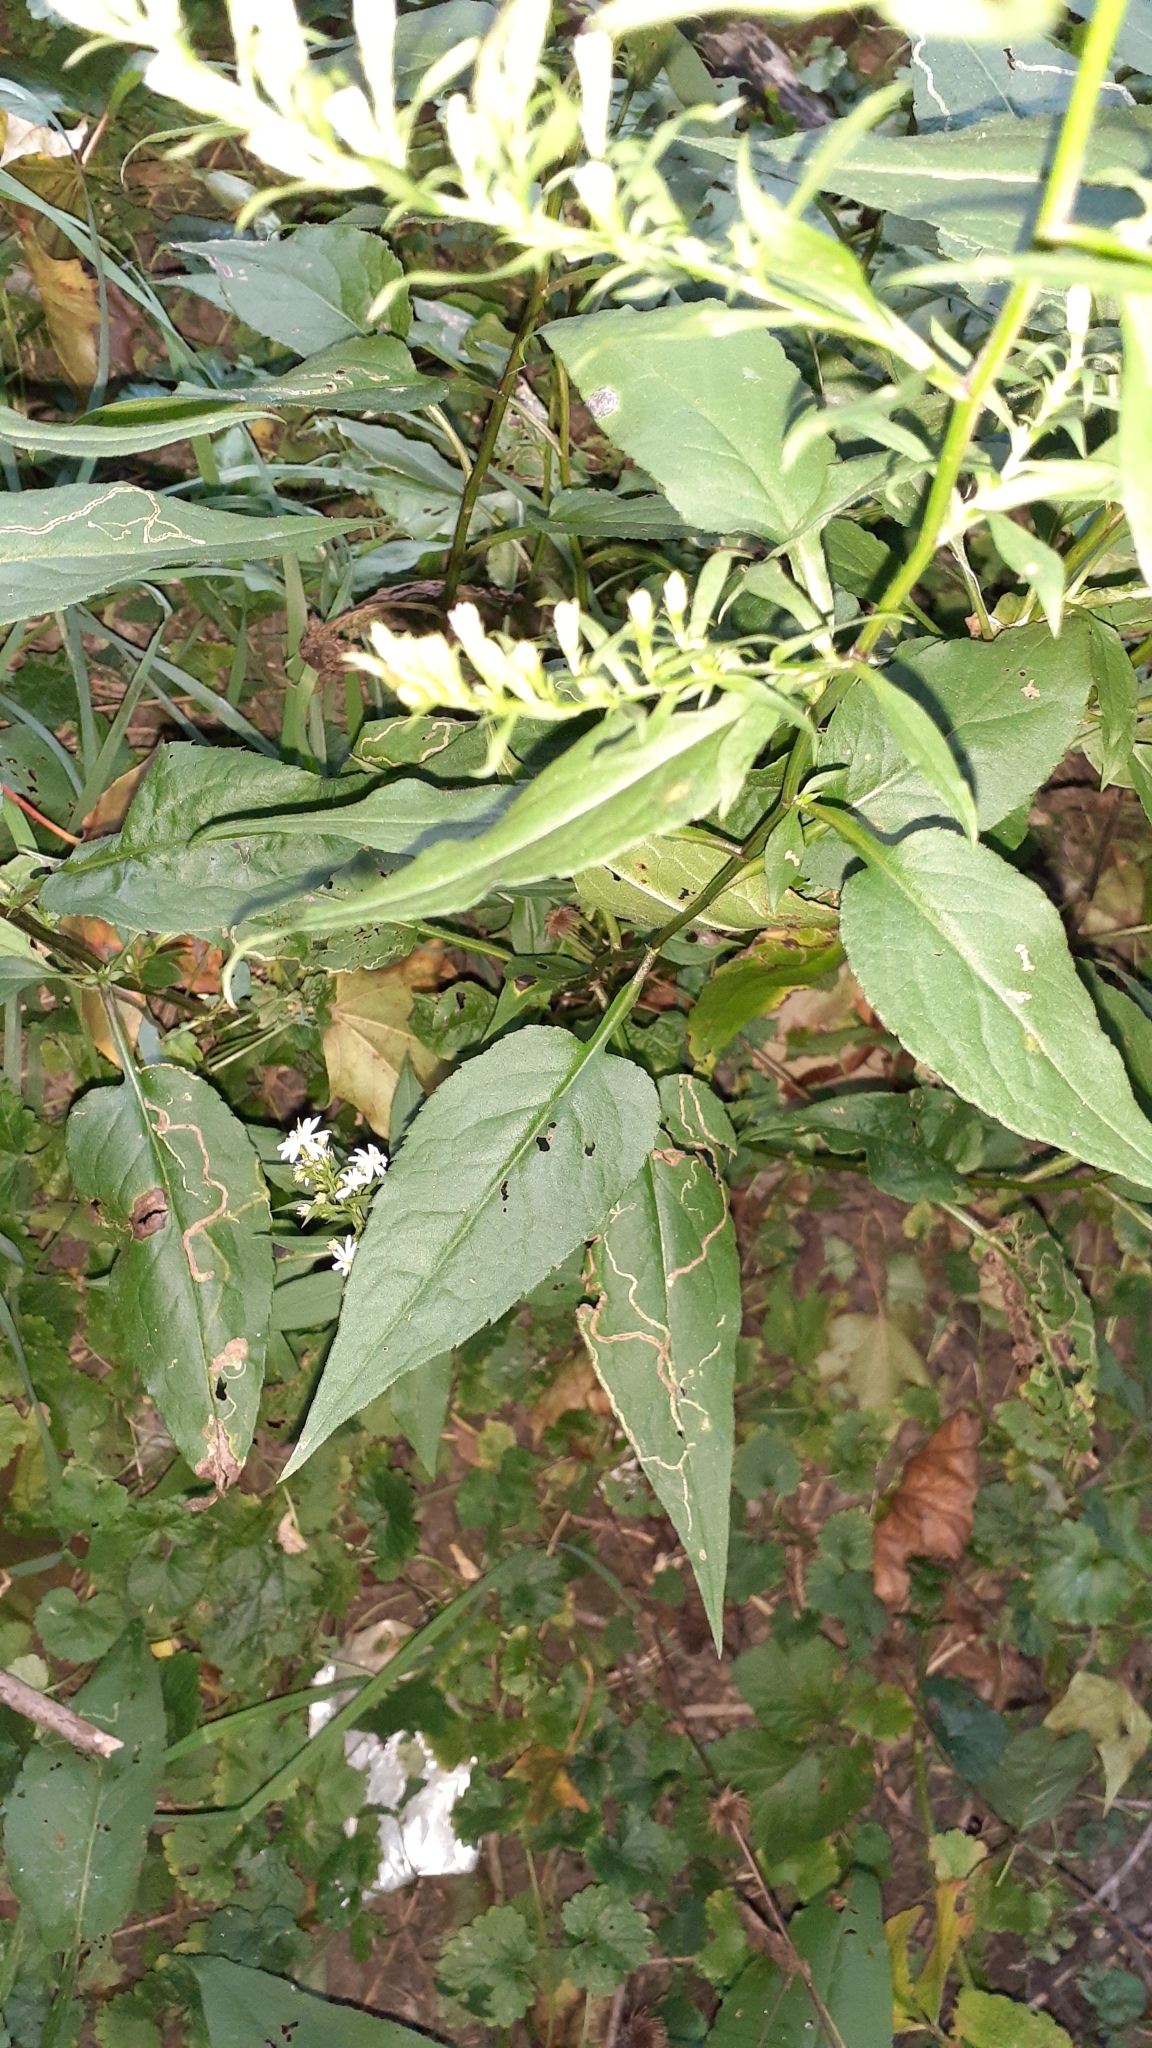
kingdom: Plantae
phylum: Tracheophyta
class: Magnoliopsida
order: Asterales
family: Asteraceae
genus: Symphyotrichum
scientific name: Symphyotrichum urophyllum
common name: Arrow-leaved aster
